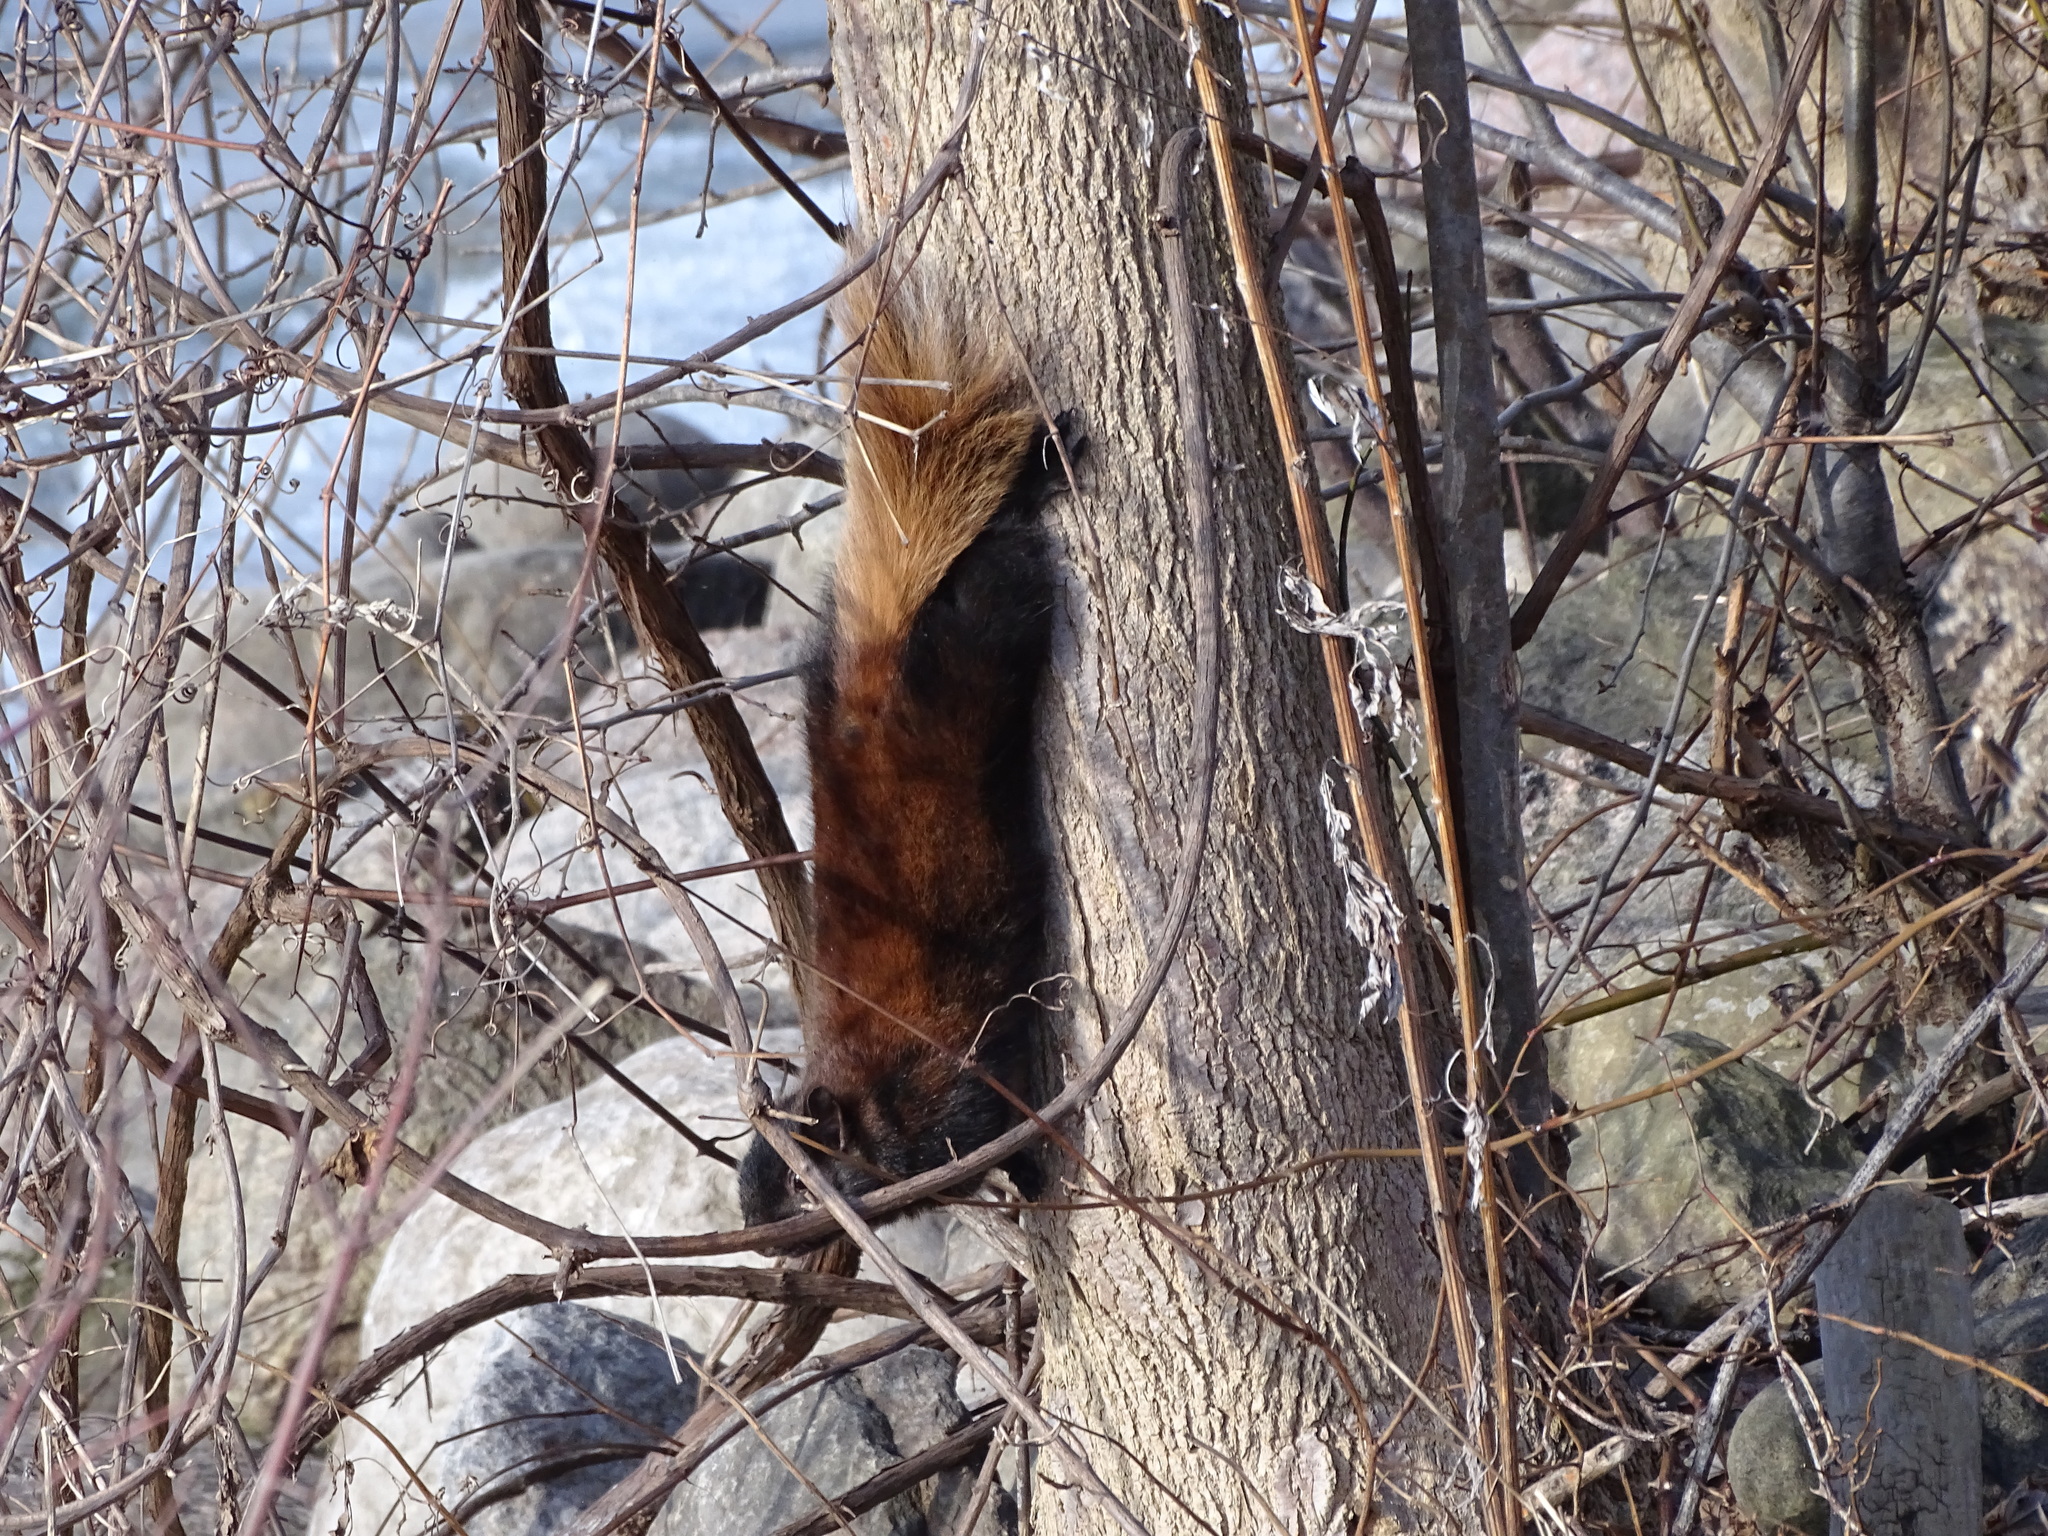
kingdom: Animalia
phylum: Chordata
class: Mammalia
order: Rodentia
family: Sciuridae
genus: Sciurus
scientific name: Sciurus carolinensis
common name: Eastern gray squirrel
